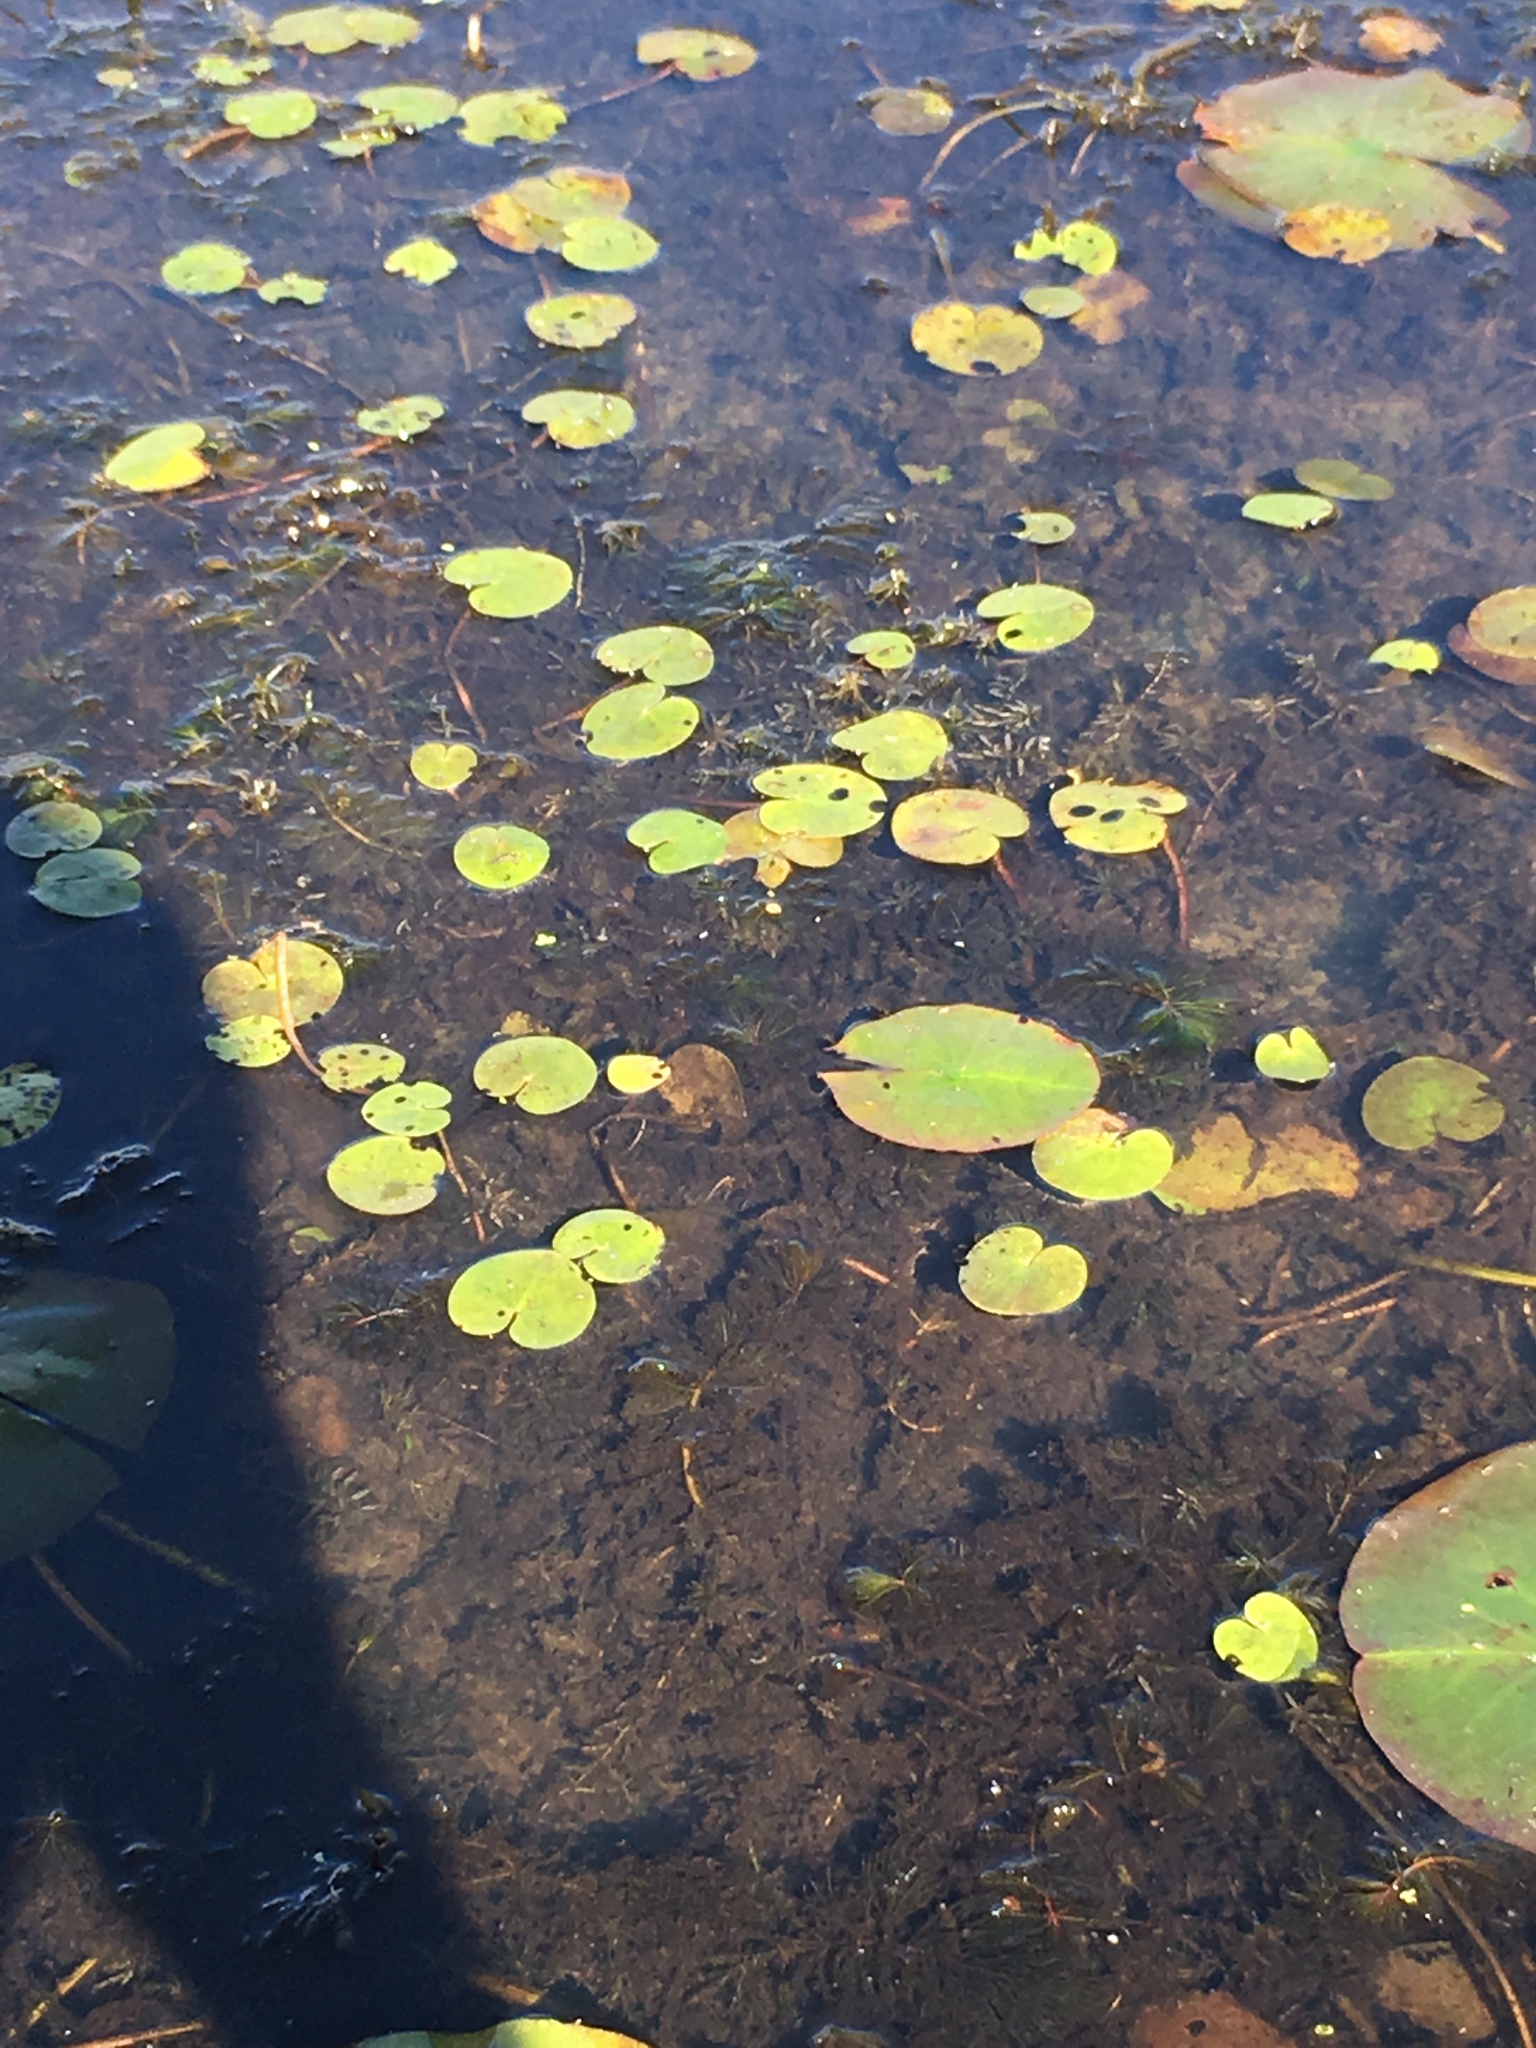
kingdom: Plantae
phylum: Tracheophyta
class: Liliopsida
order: Alismatales
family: Hydrocharitaceae
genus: Hydrocharis
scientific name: Hydrocharis morsus-ranae
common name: Frogbit
